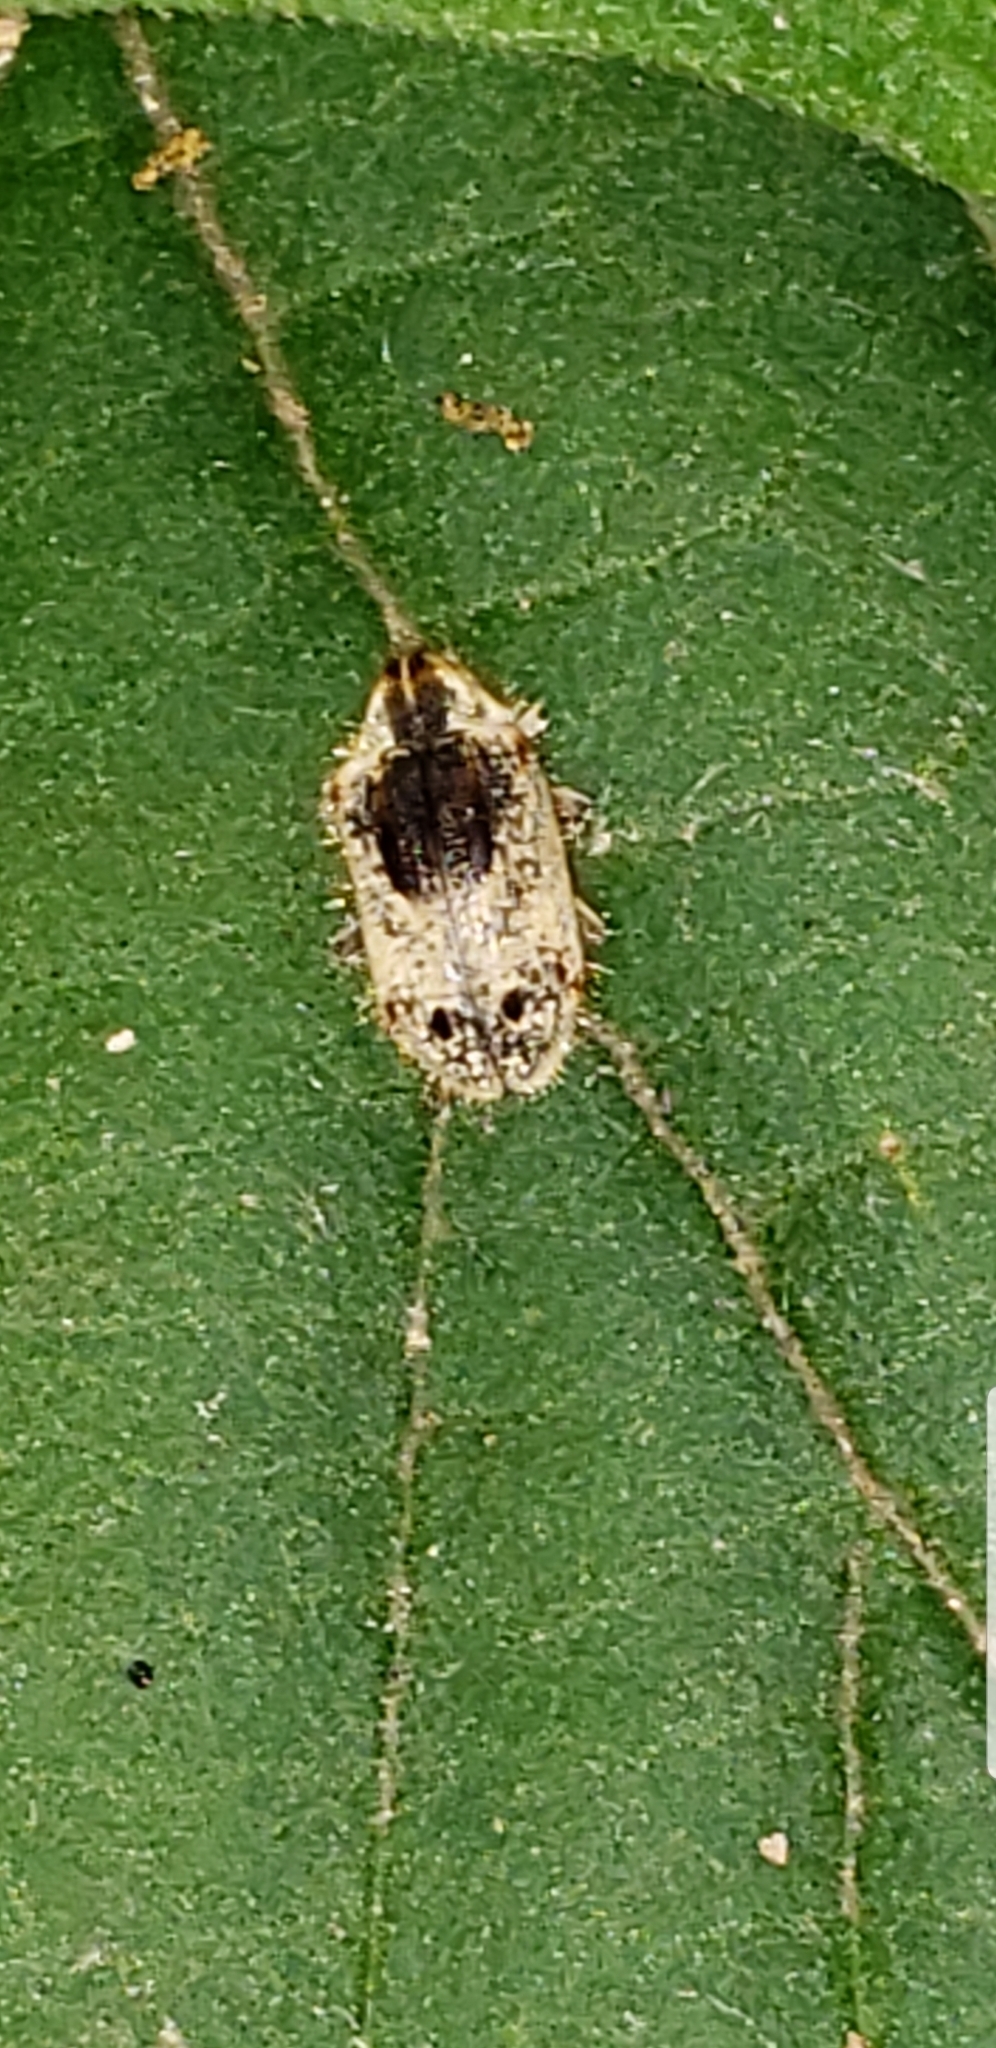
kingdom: Animalia
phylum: Arthropoda
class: Insecta
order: Coleoptera
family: Anobiidae
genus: Trichodesma
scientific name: Trichodesma gibbosa
